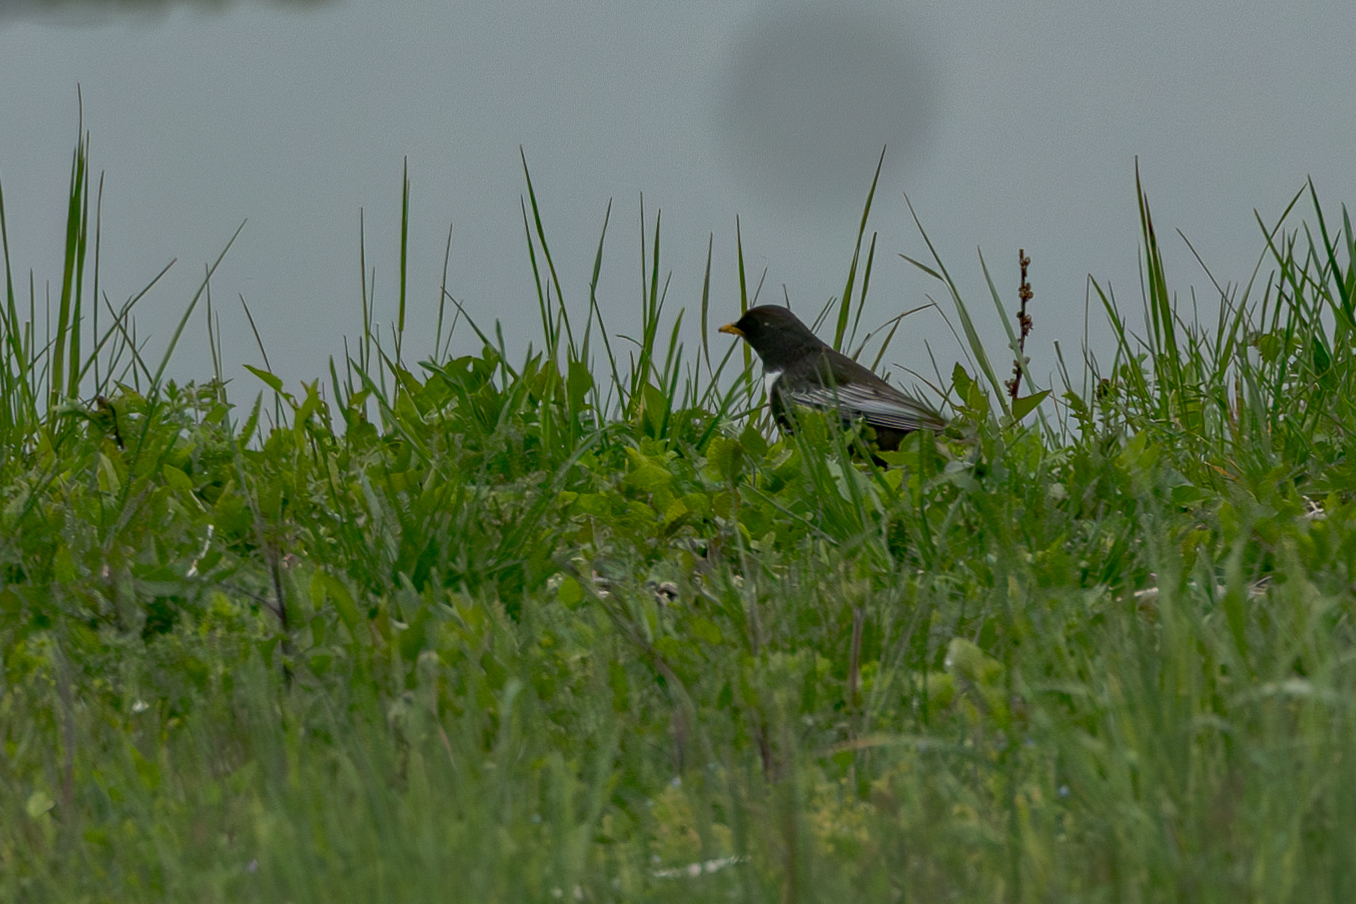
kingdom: Animalia
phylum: Chordata
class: Aves
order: Passeriformes
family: Turdidae
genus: Turdus
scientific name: Turdus torquatus
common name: Ring ouzel
